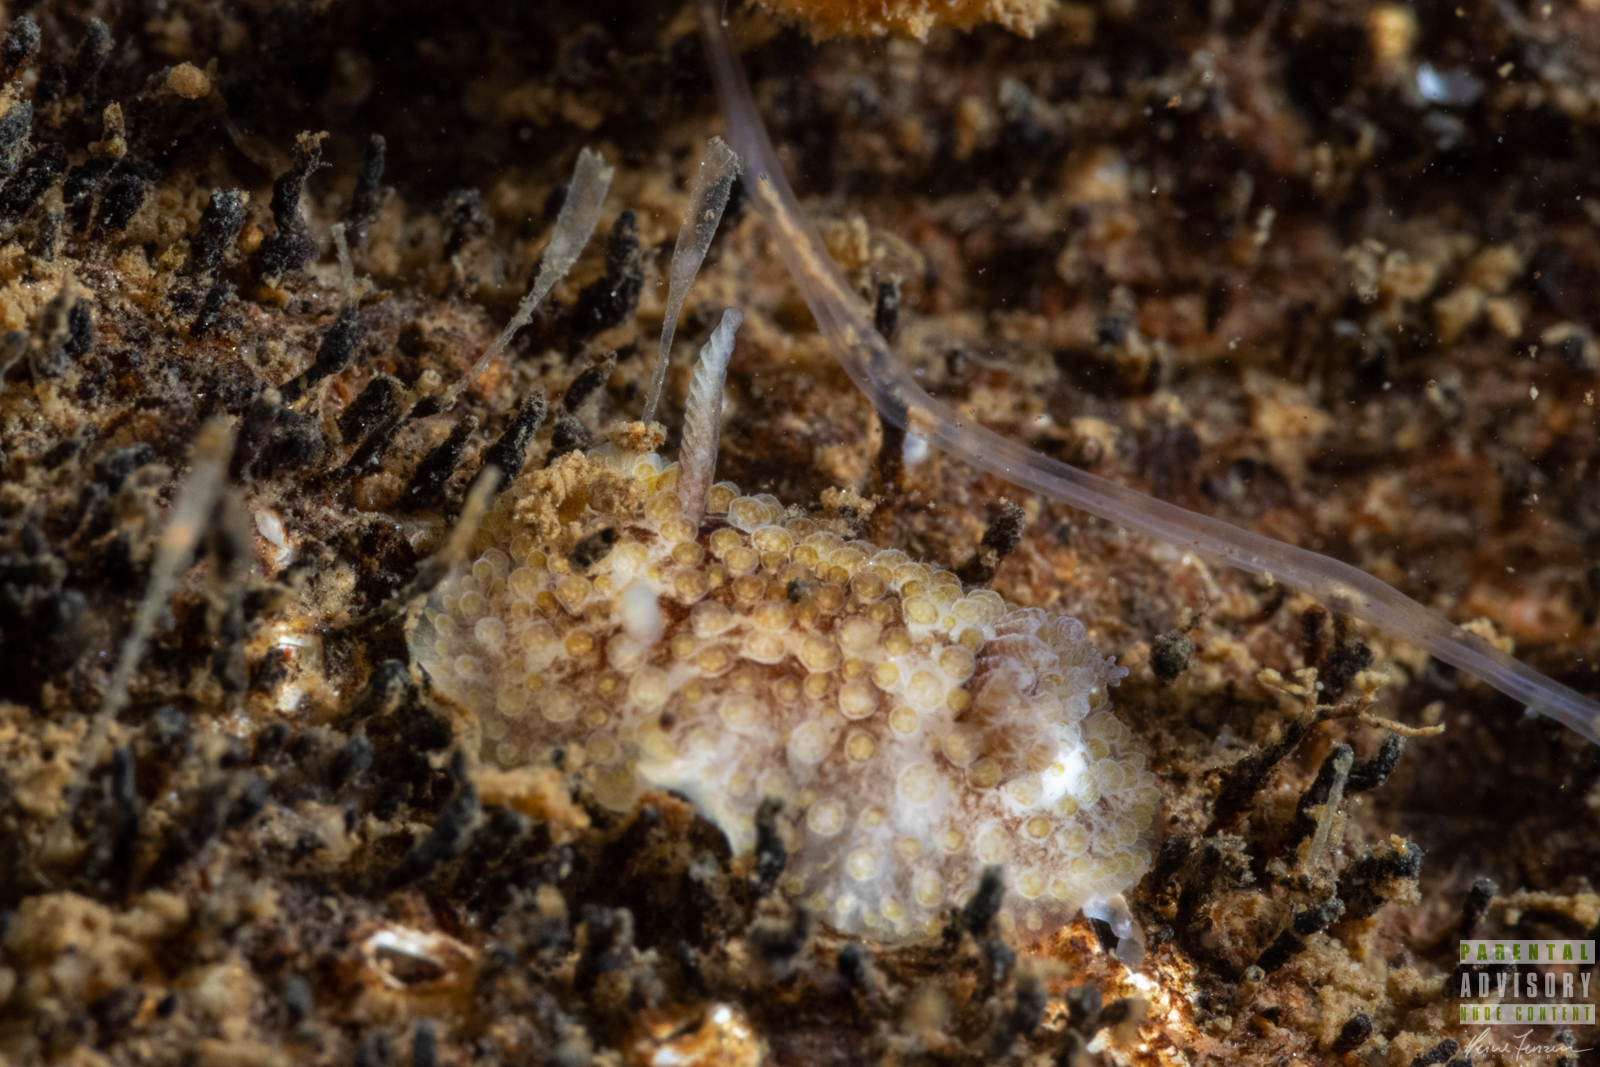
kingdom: Animalia
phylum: Mollusca
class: Gastropoda
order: Nudibranchia
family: Onchidorididae
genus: Onchidoris
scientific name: Onchidoris bilamellata
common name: Barnacle-eating onchidoris
